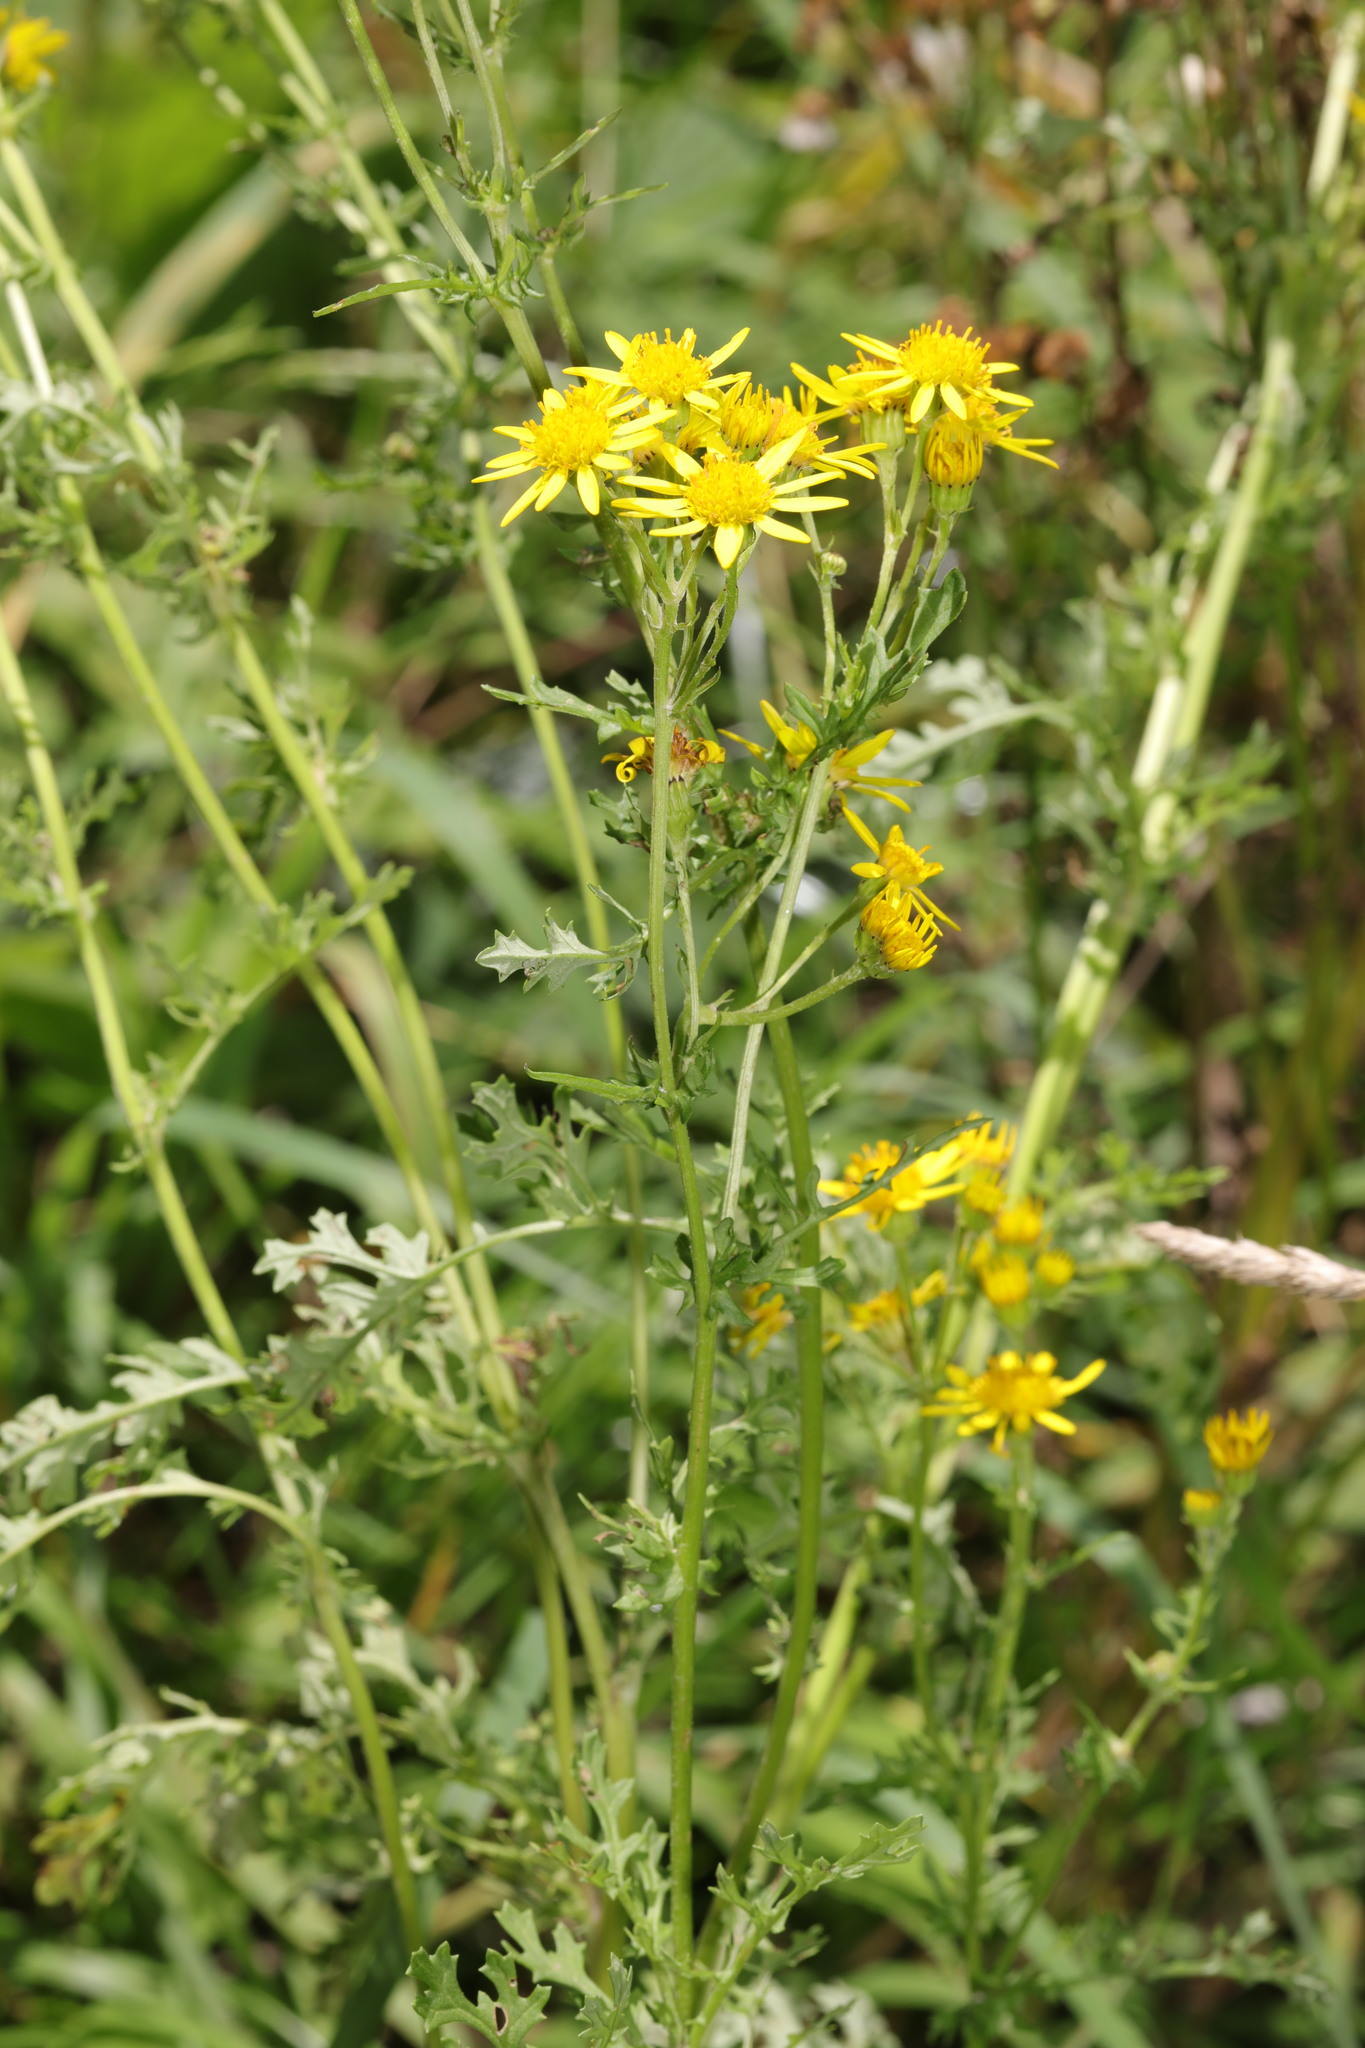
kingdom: Plantae
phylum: Tracheophyta
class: Magnoliopsida
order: Asterales
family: Asteraceae
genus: Jacobaea
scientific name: Jacobaea vulgaris
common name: Stinking willie
